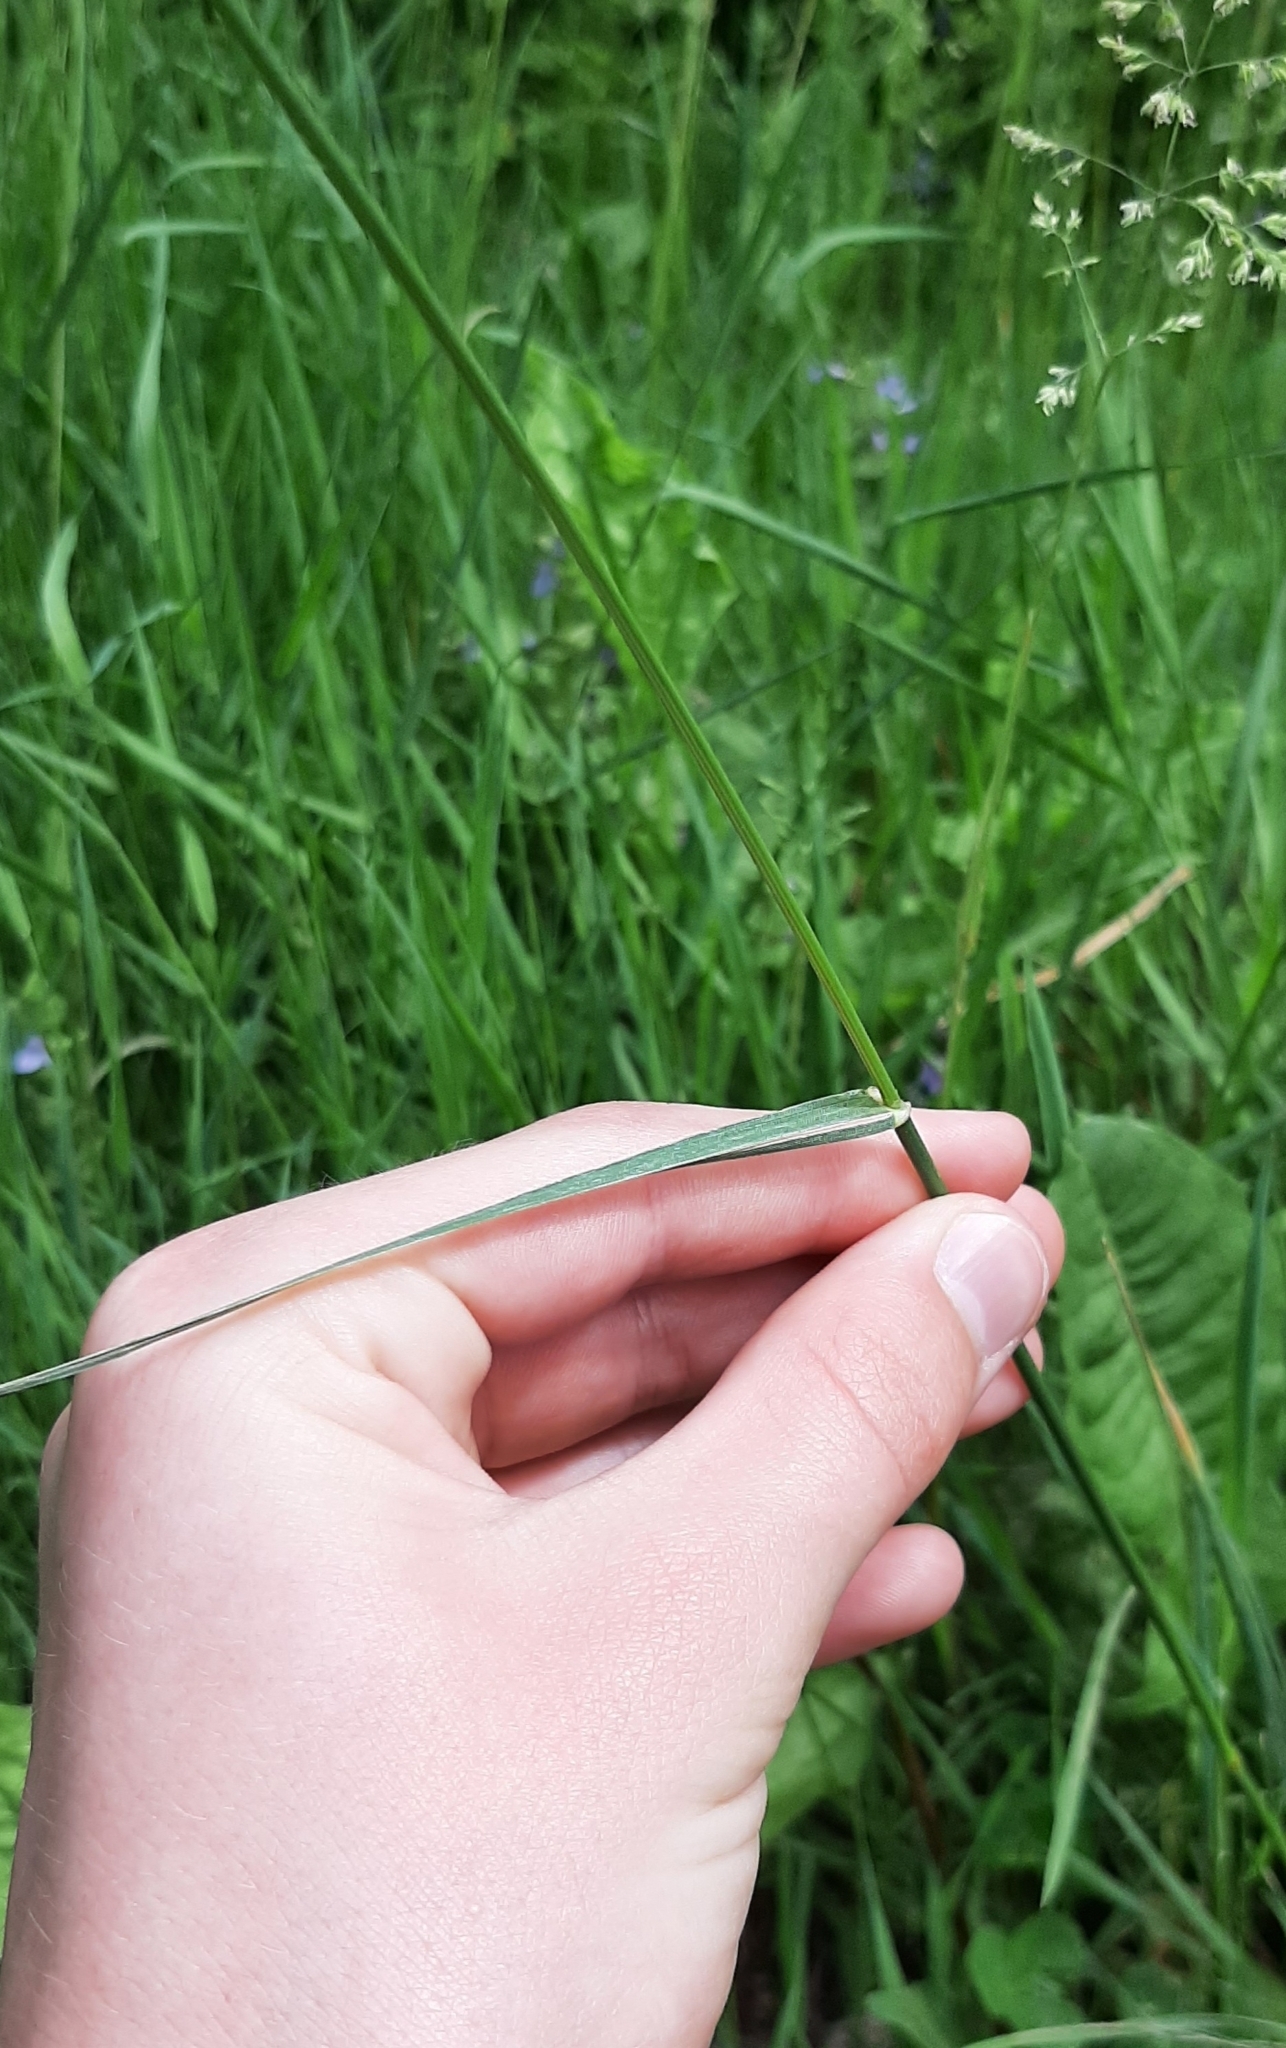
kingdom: Plantae
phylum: Tracheophyta
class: Liliopsida
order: Poales
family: Poaceae
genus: Lolium
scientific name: Lolium perenne
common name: Perennial ryegrass
